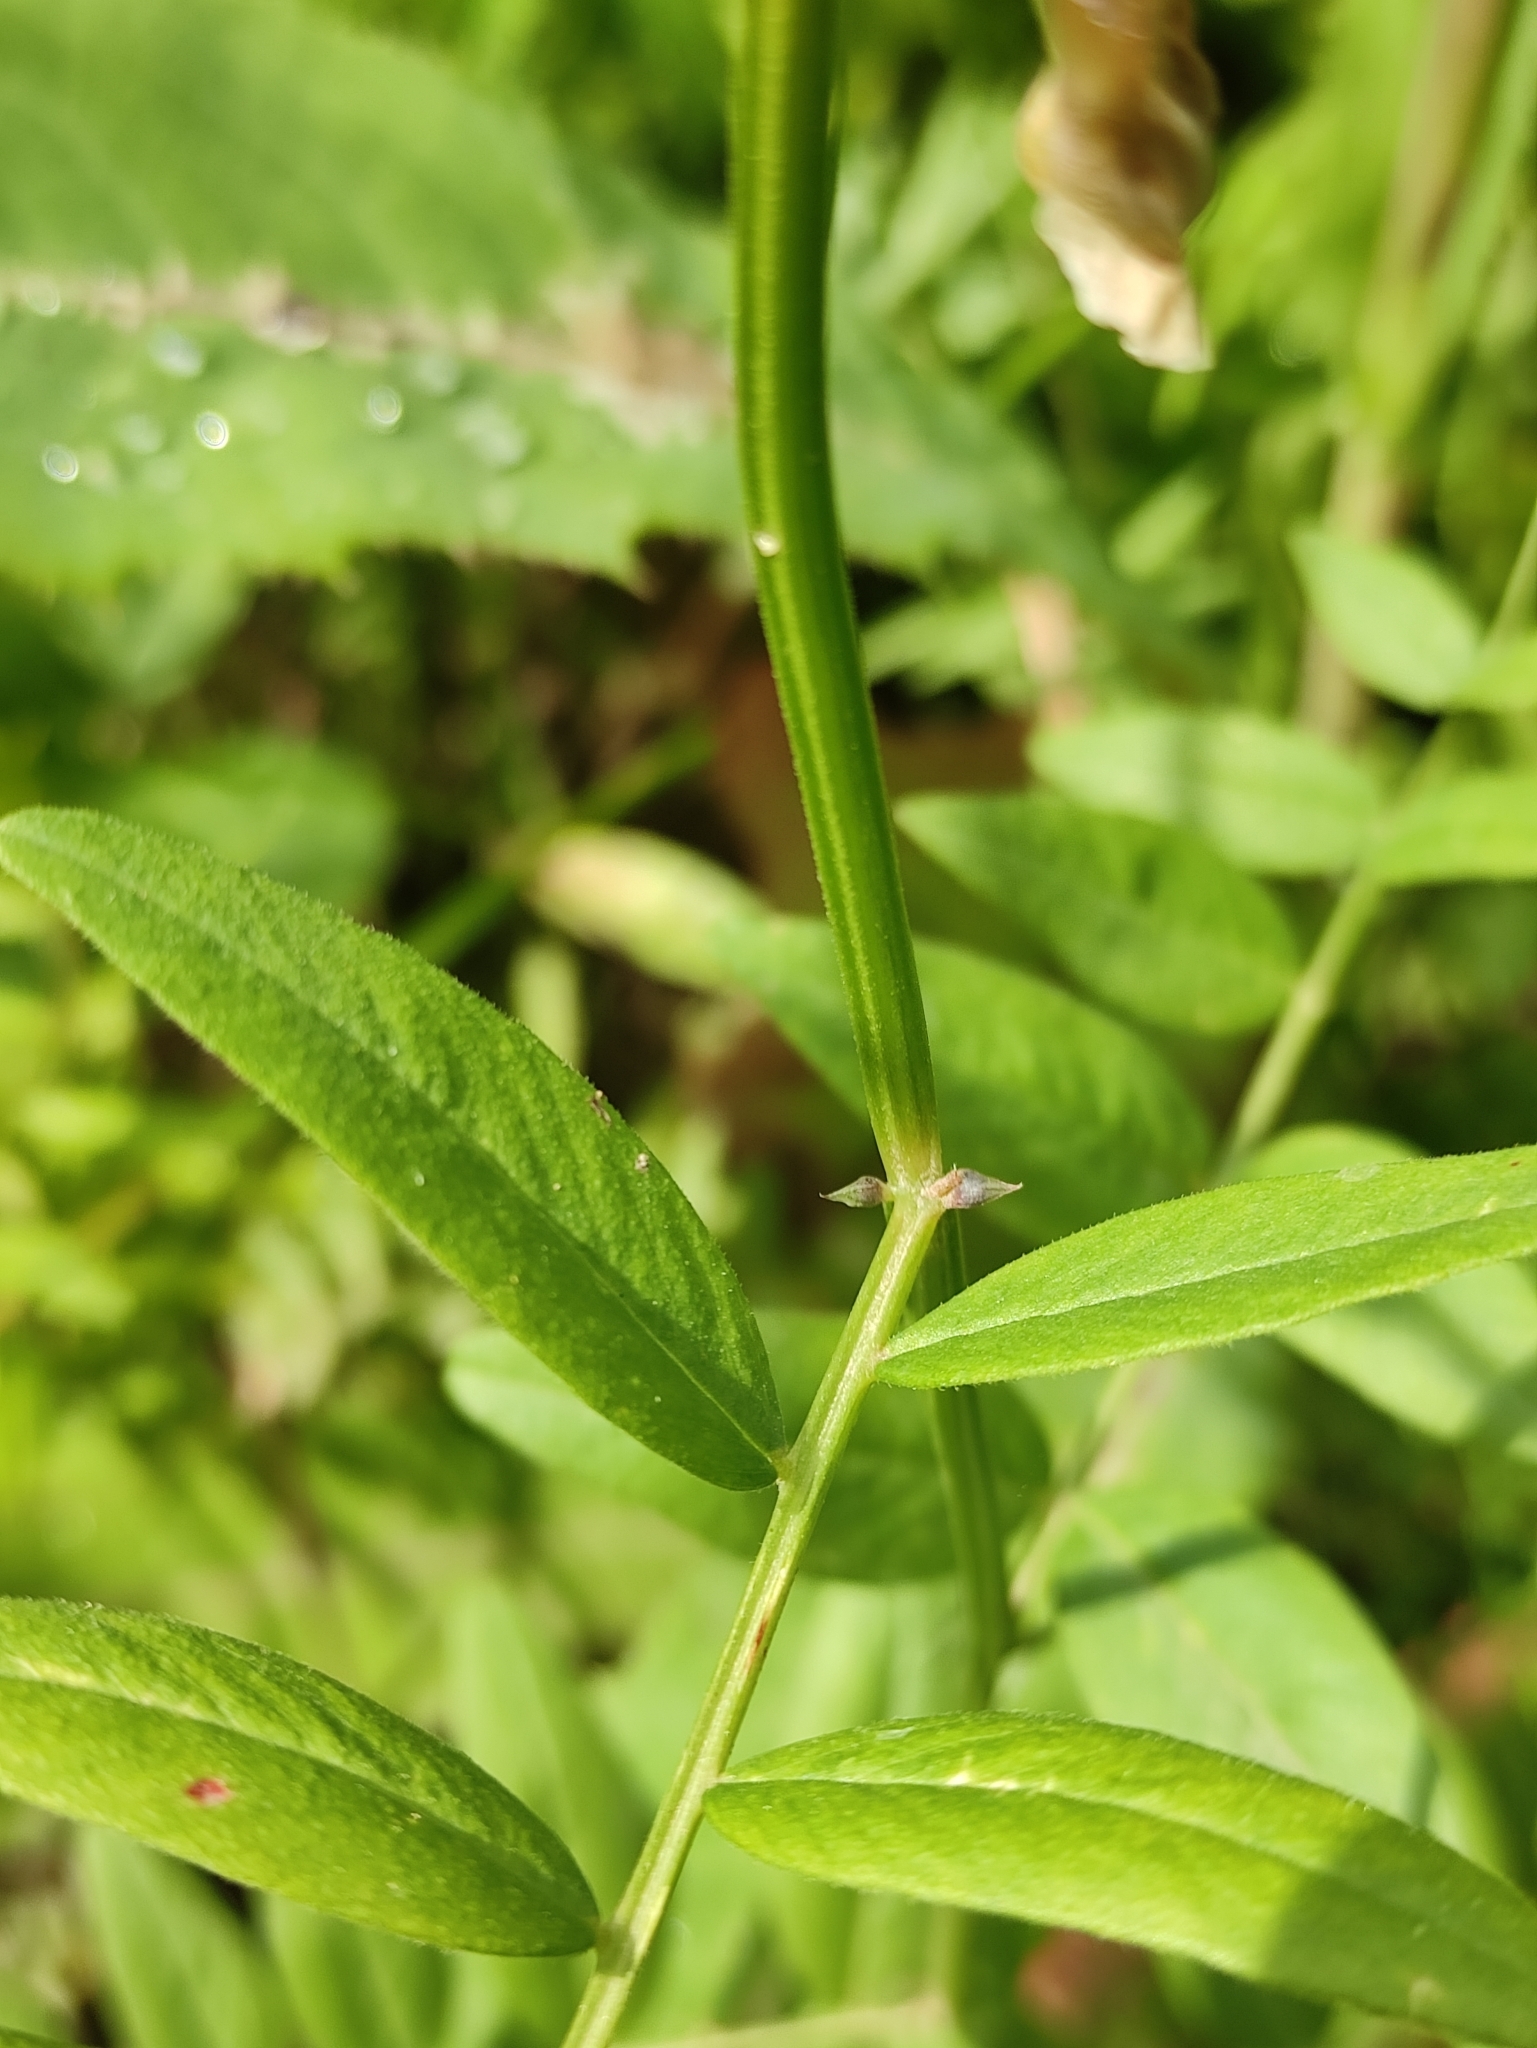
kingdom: Plantae
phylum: Tracheophyta
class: Magnoliopsida
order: Fabales
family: Fabaceae
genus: Vicia
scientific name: Vicia sepium
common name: Bush vetch
